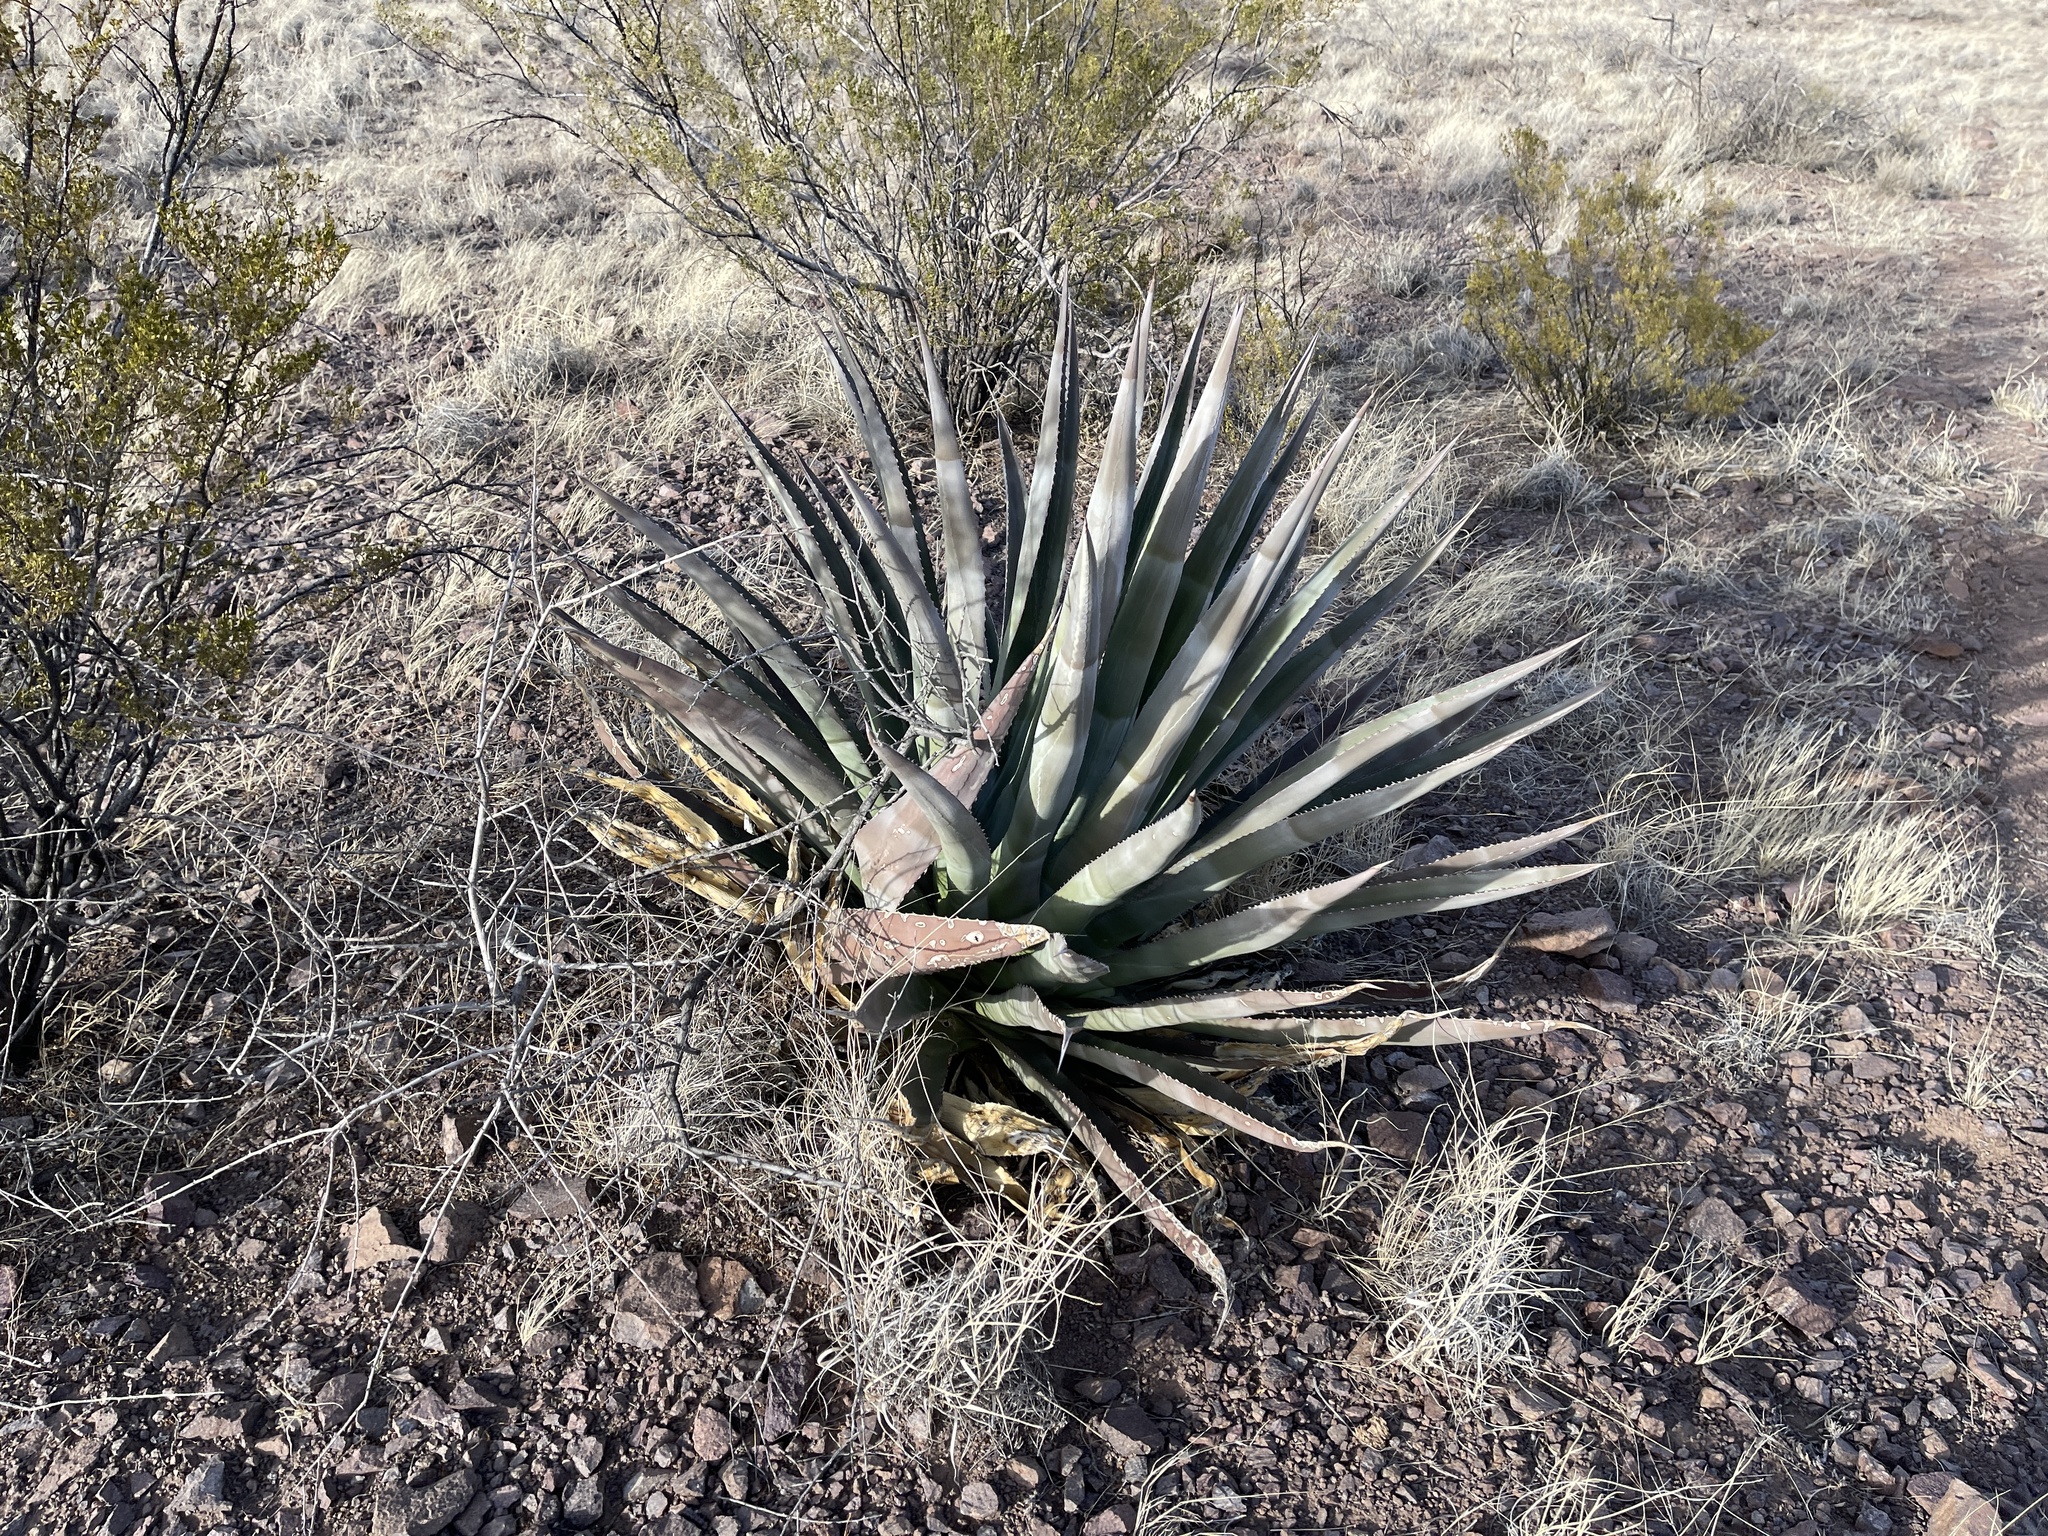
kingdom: Plantae
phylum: Tracheophyta
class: Liliopsida
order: Asparagales
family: Asparagaceae
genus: Agave
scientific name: Agave palmeri
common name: Palmer agave
